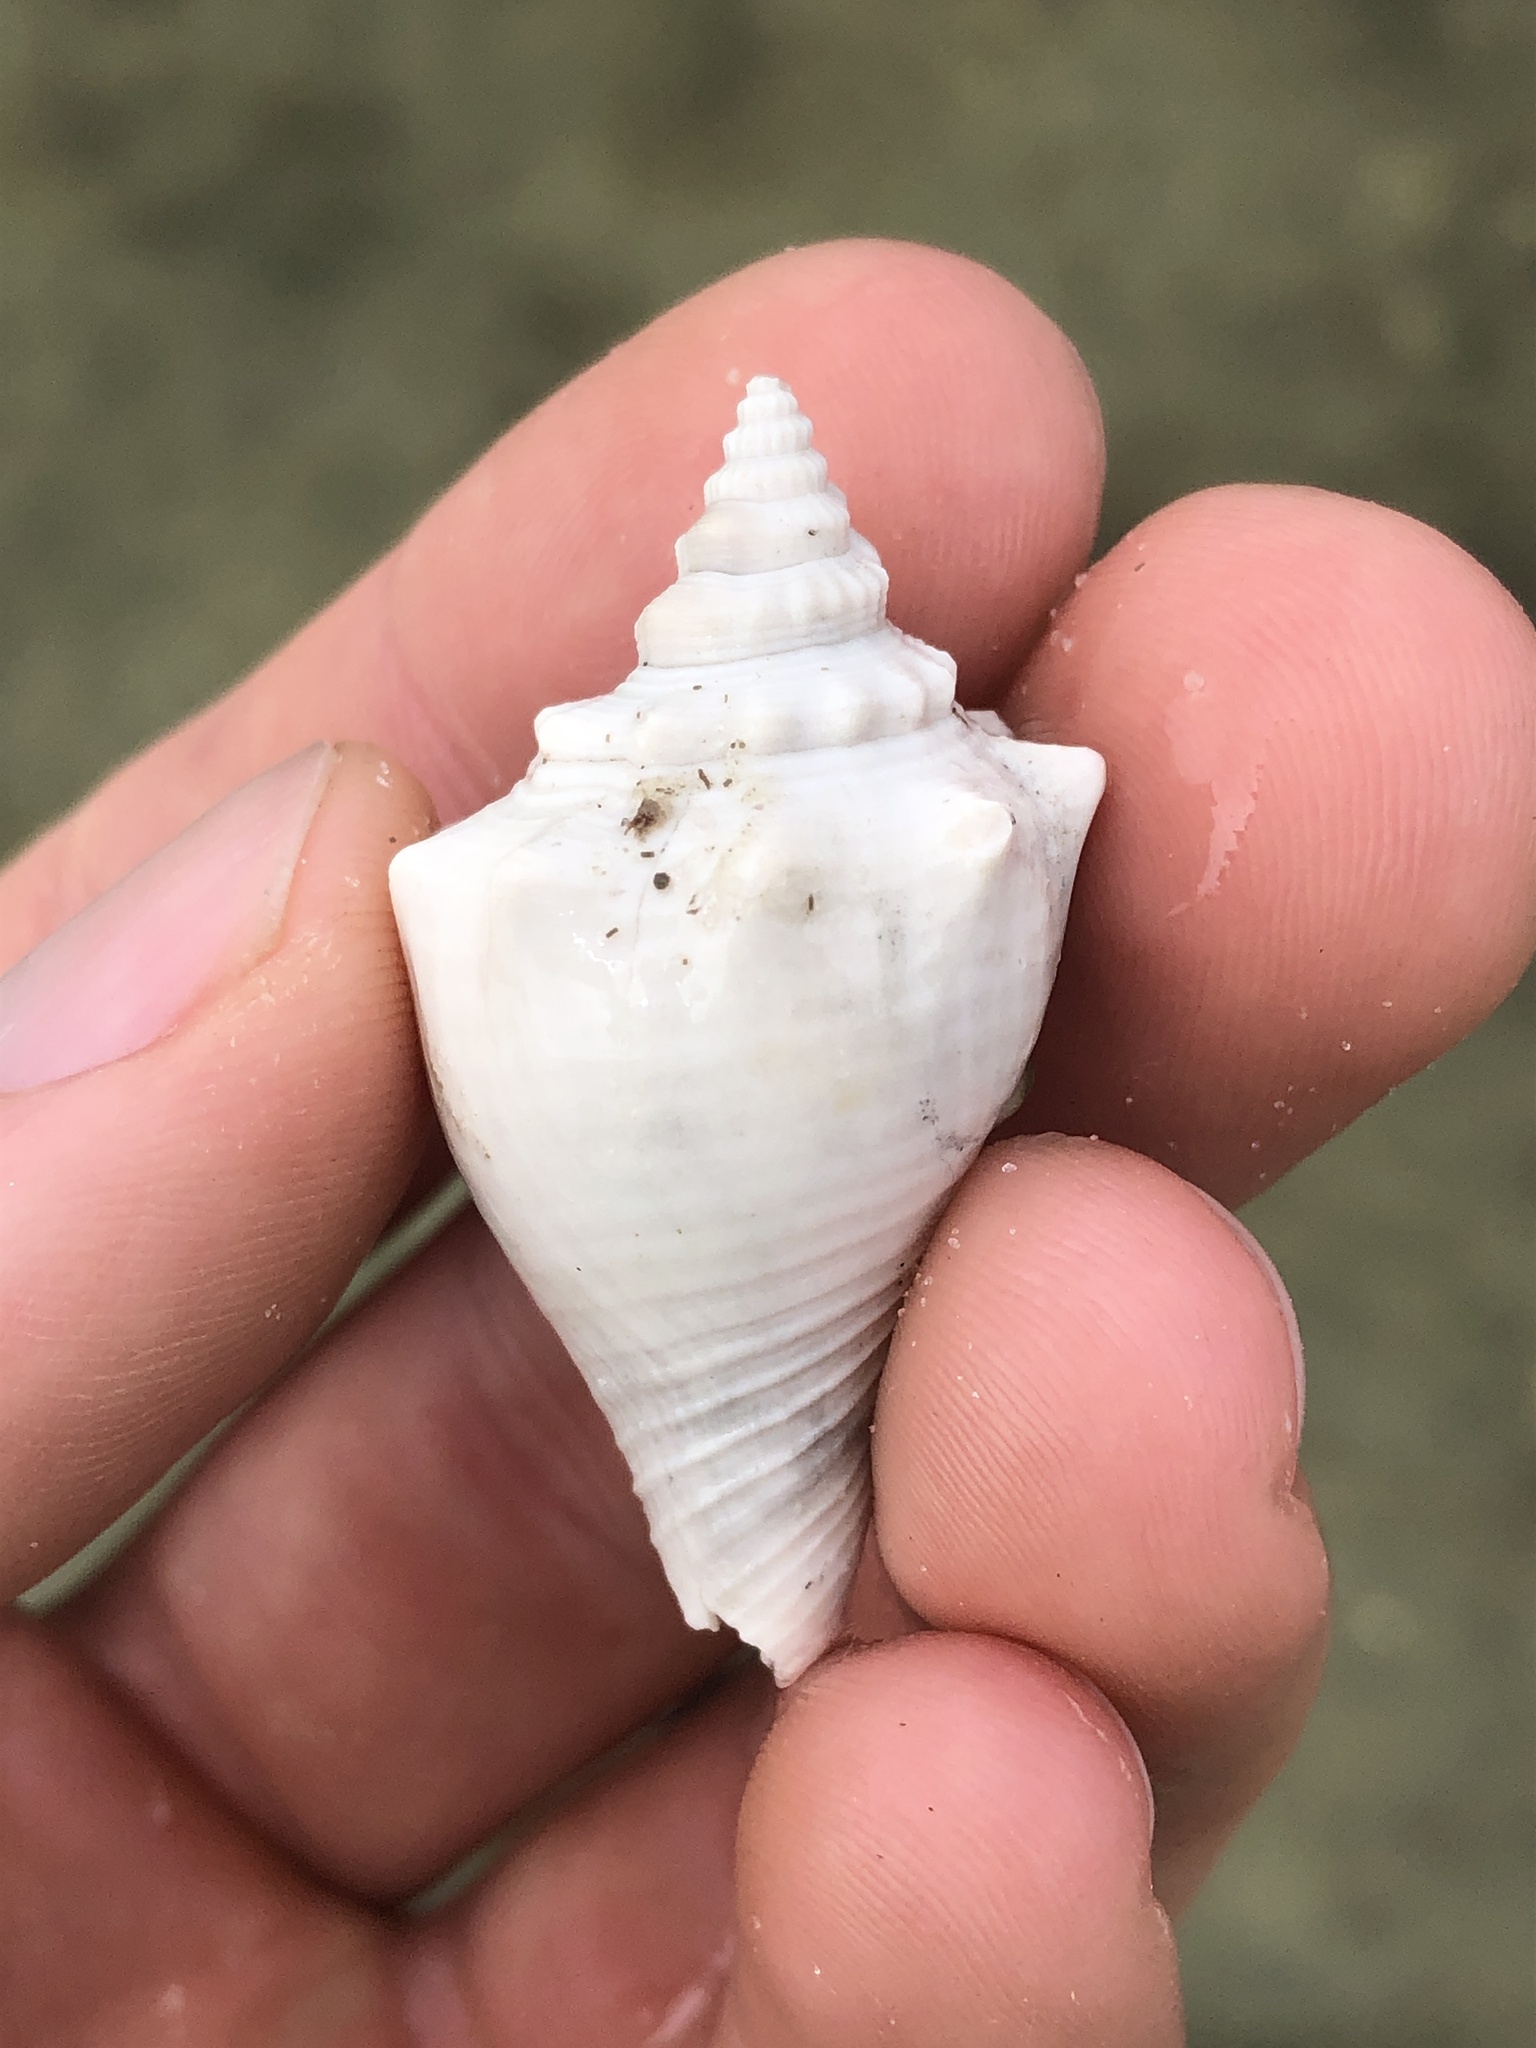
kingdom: Animalia
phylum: Mollusca
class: Gastropoda
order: Littorinimorpha
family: Strombidae
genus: Strombus
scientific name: Strombus alatus
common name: Florida fighting conch
